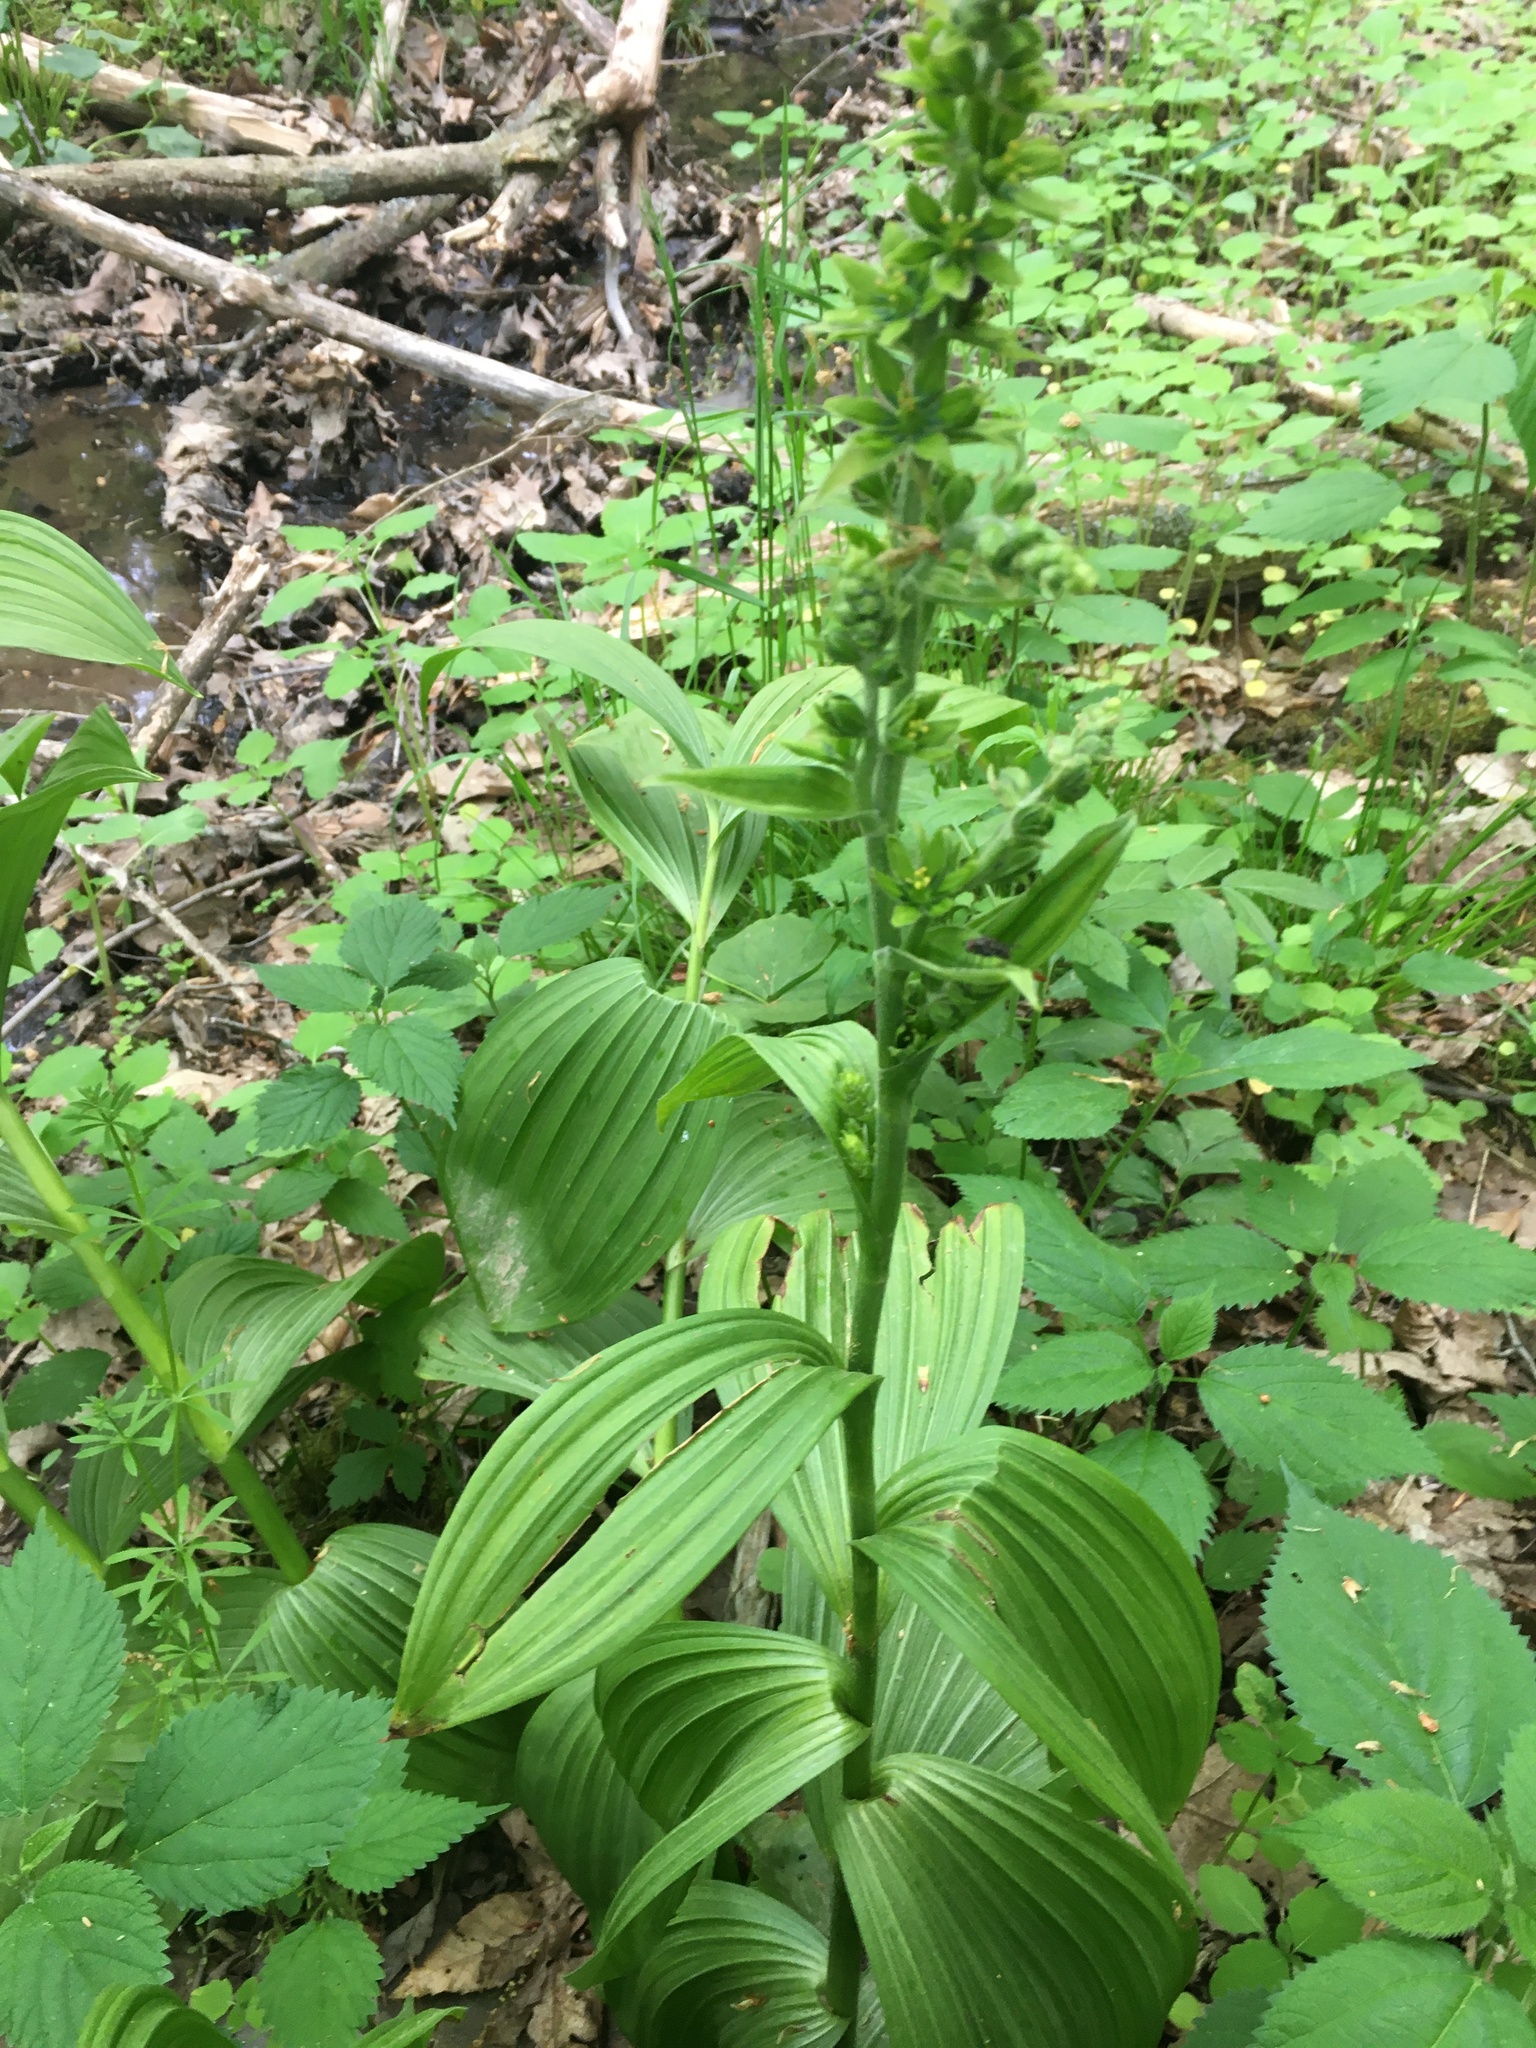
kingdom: Plantae
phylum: Tracheophyta
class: Liliopsida
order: Liliales
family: Melanthiaceae
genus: Veratrum
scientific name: Veratrum viride
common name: American false hellebore
